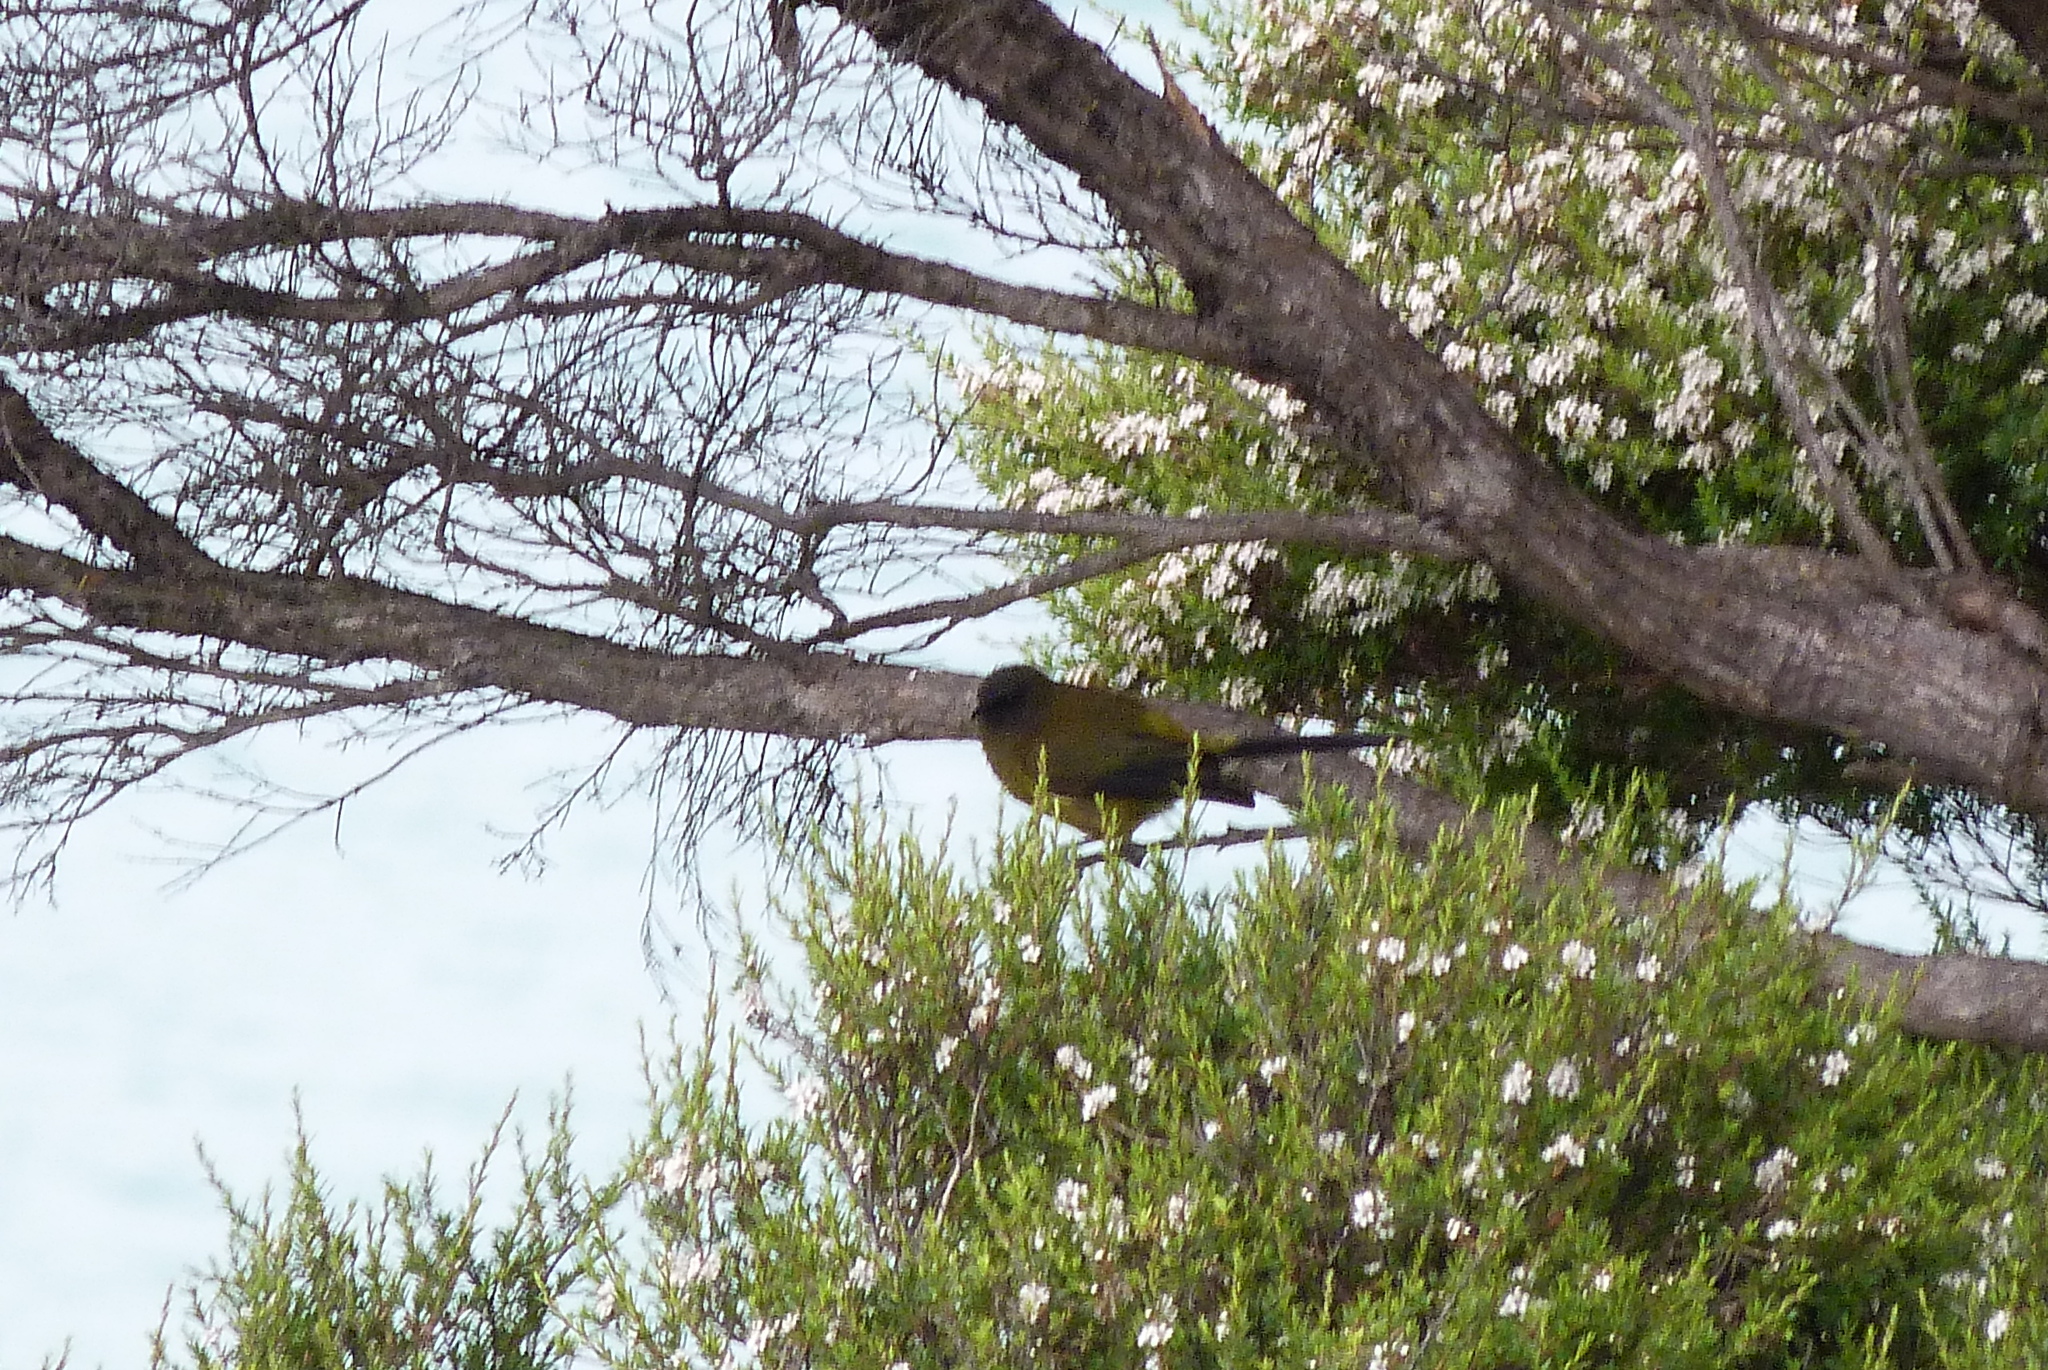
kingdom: Animalia
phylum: Chordata
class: Aves
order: Passeriformes
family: Meliphagidae
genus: Anthornis
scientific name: Anthornis melanura
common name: New zealand bellbird
